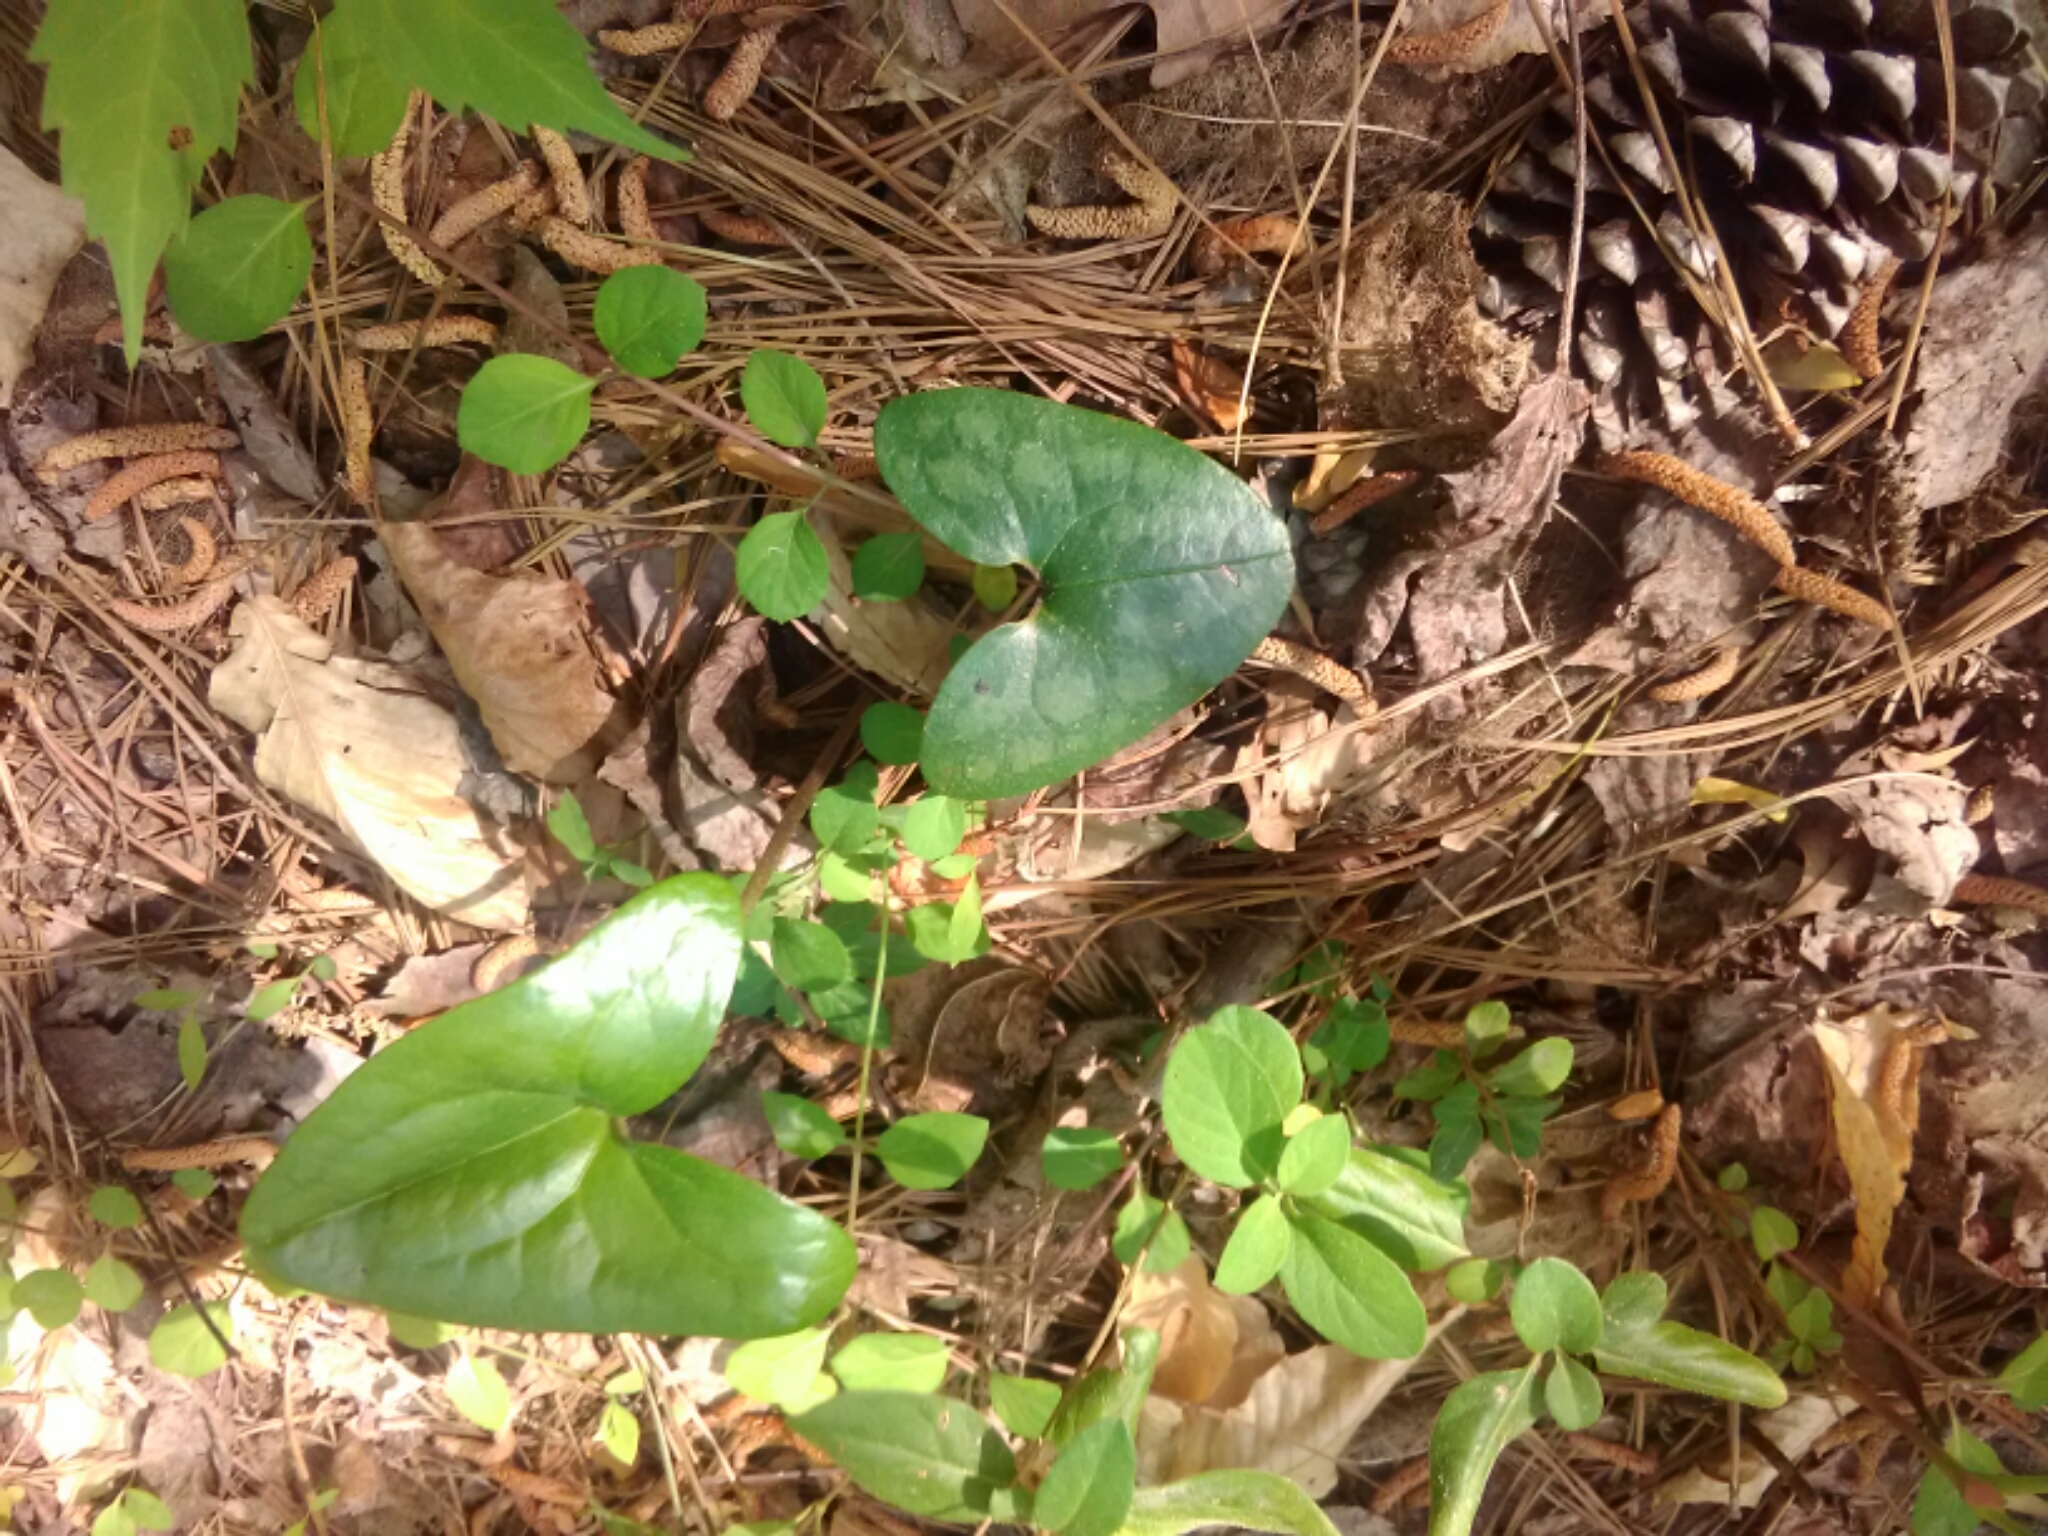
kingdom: Plantae
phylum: Tracheophyta
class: Magnoliopsida
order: Piperales
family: Aristolochiaceae
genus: Hexastylis
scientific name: Hexastylis arifolia
